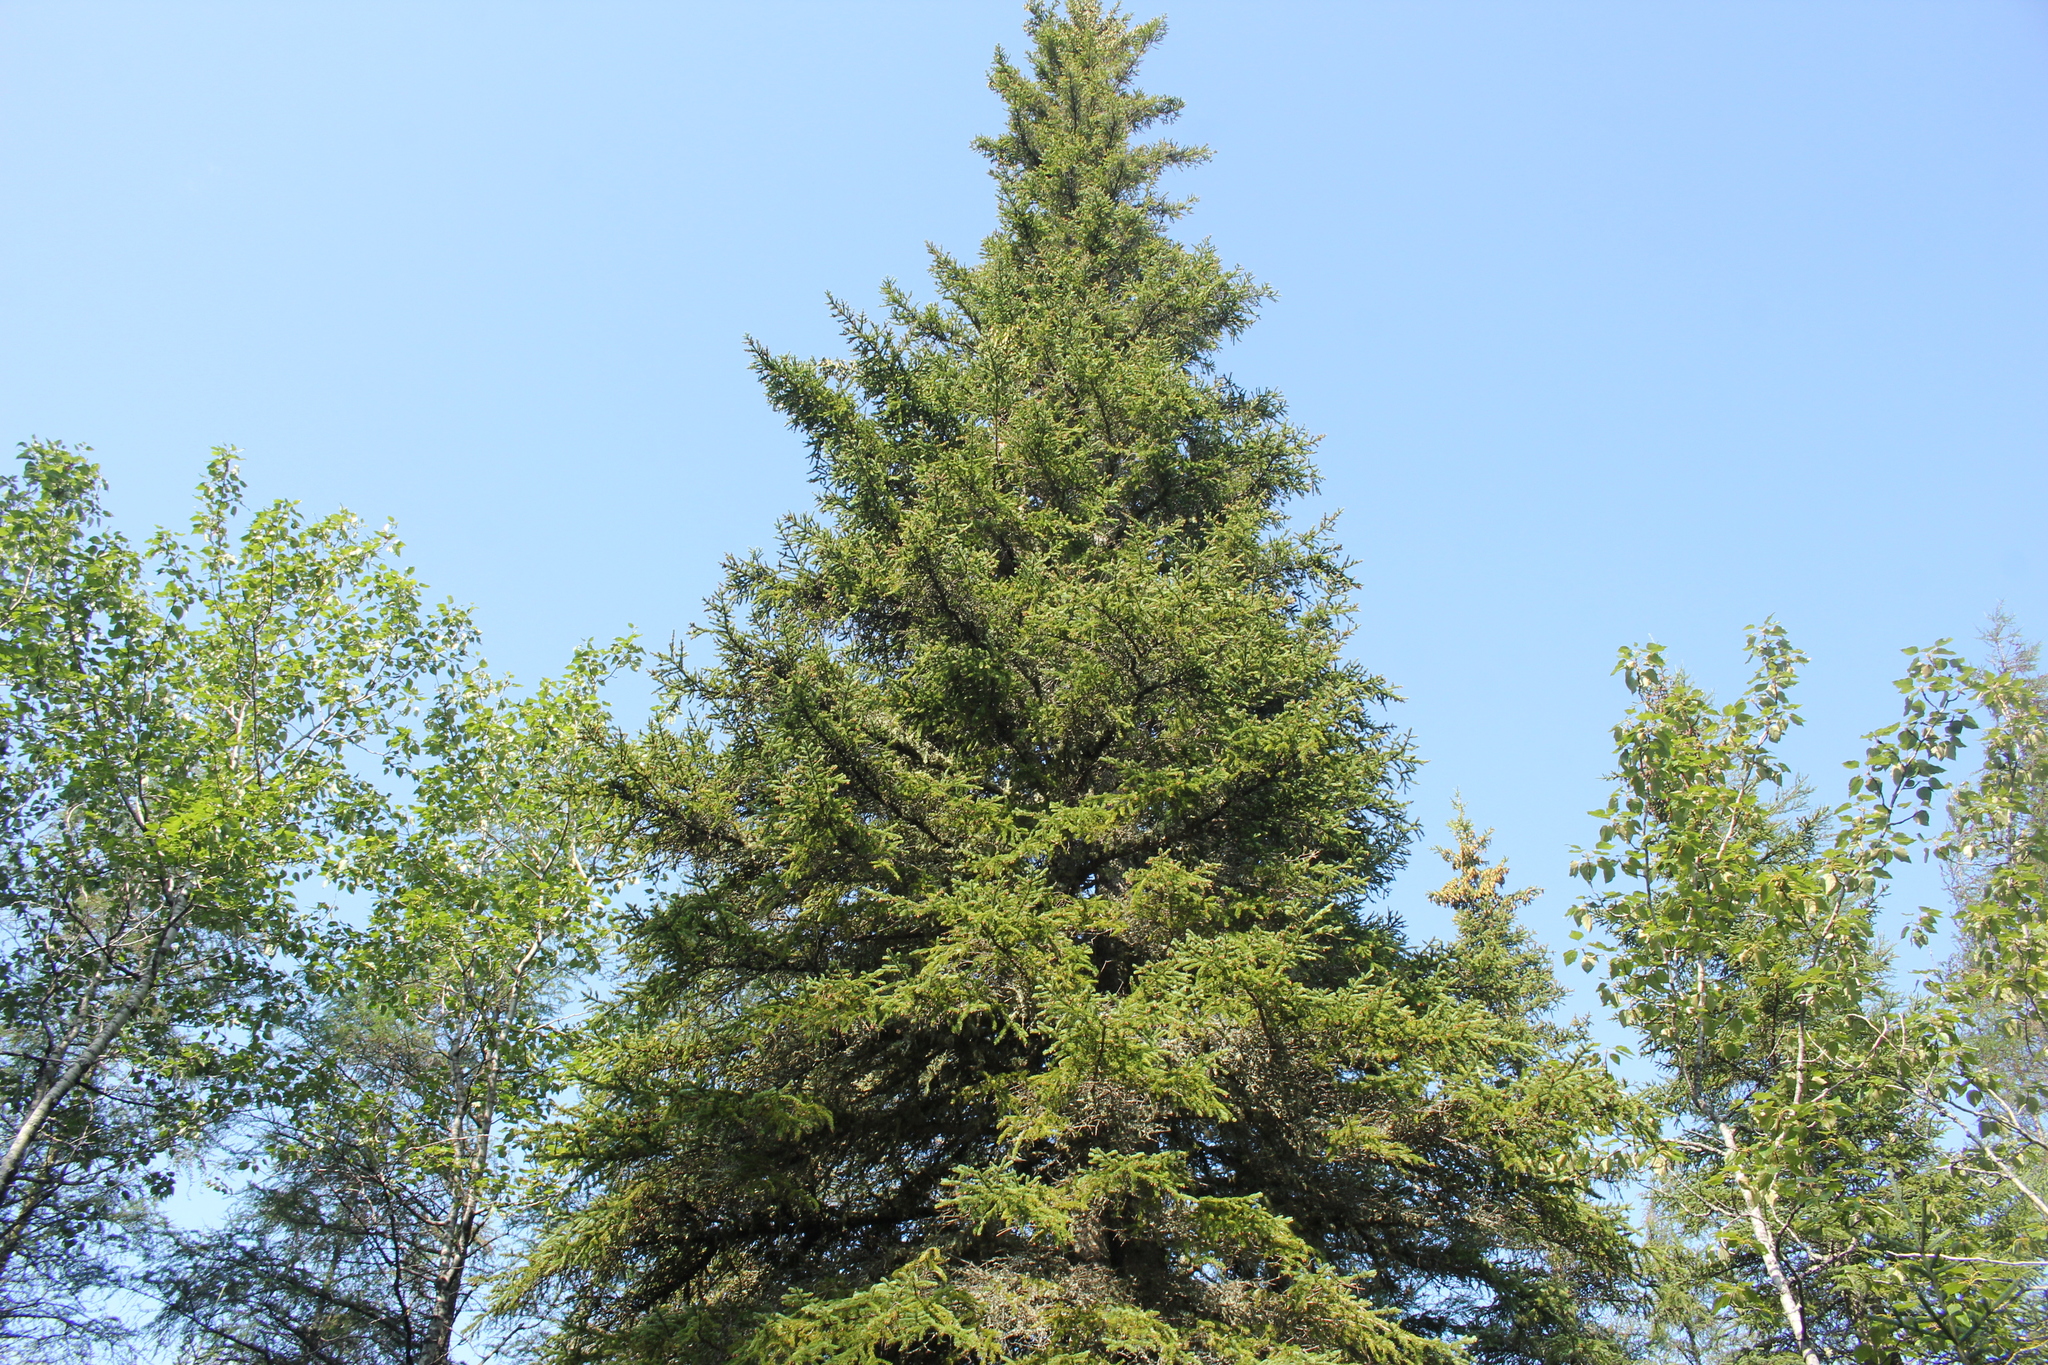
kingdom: Plantae
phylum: Tracheophyta
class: Pinopsida
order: Pinales
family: Pinaceae
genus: Picea
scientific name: Picea glauca
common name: White spruce
